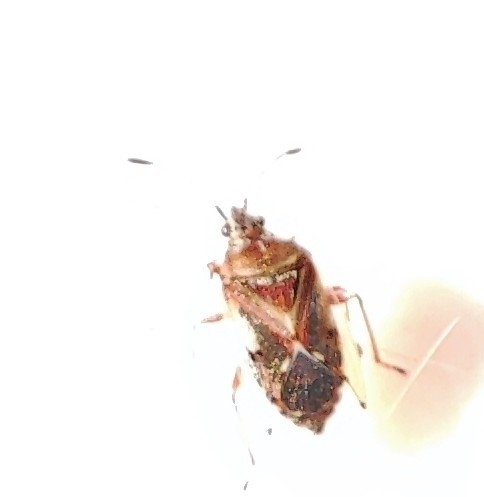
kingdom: Animalia
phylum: Arthropoda
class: Insecta
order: Hemiptera
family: Lygaeidae
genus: Kleidocerys
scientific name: Kleidocerys resedae
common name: Birch catkin bug
